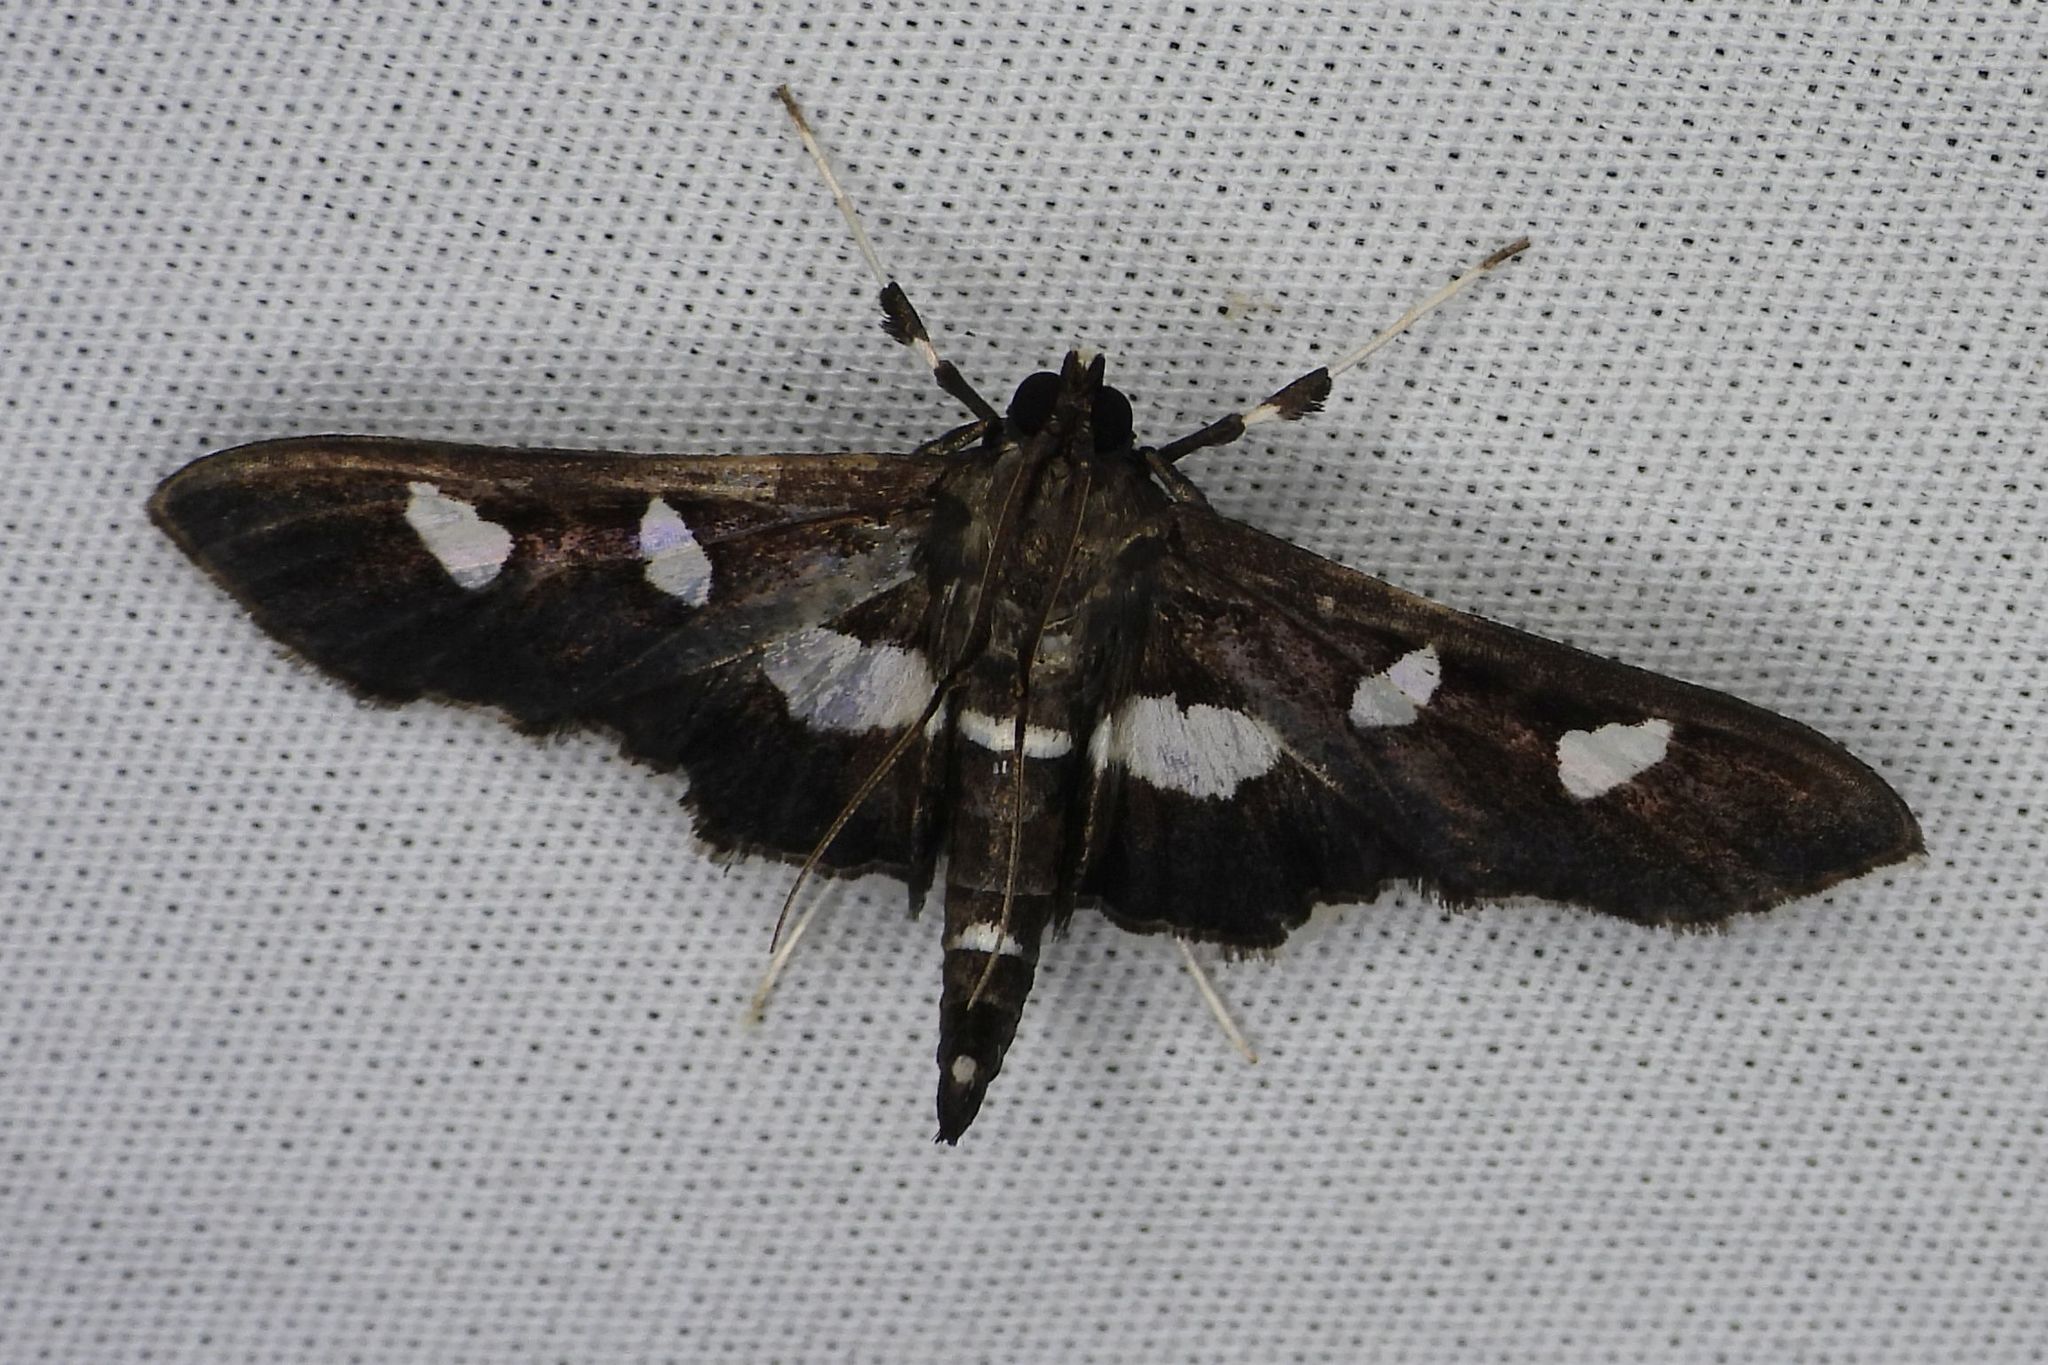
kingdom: Animalia
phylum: Arthropoda
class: Insecta
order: Lepidoptera
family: Crambidae
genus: Desmia
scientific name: Desmia
